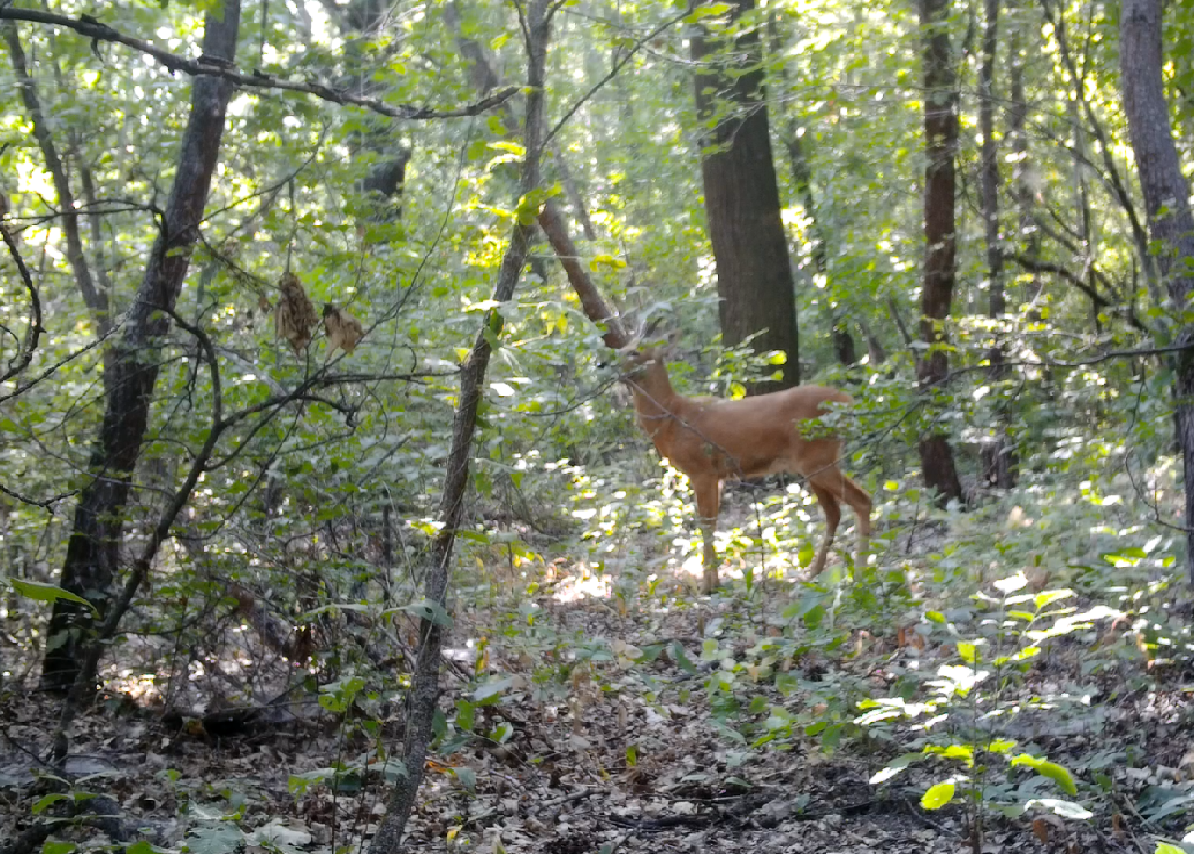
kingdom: Animalia
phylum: Chordata
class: Mammalia
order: Artiodactyla
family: Cervidae
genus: Capreolus
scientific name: Capreolus pygargus
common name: Siberian roe
